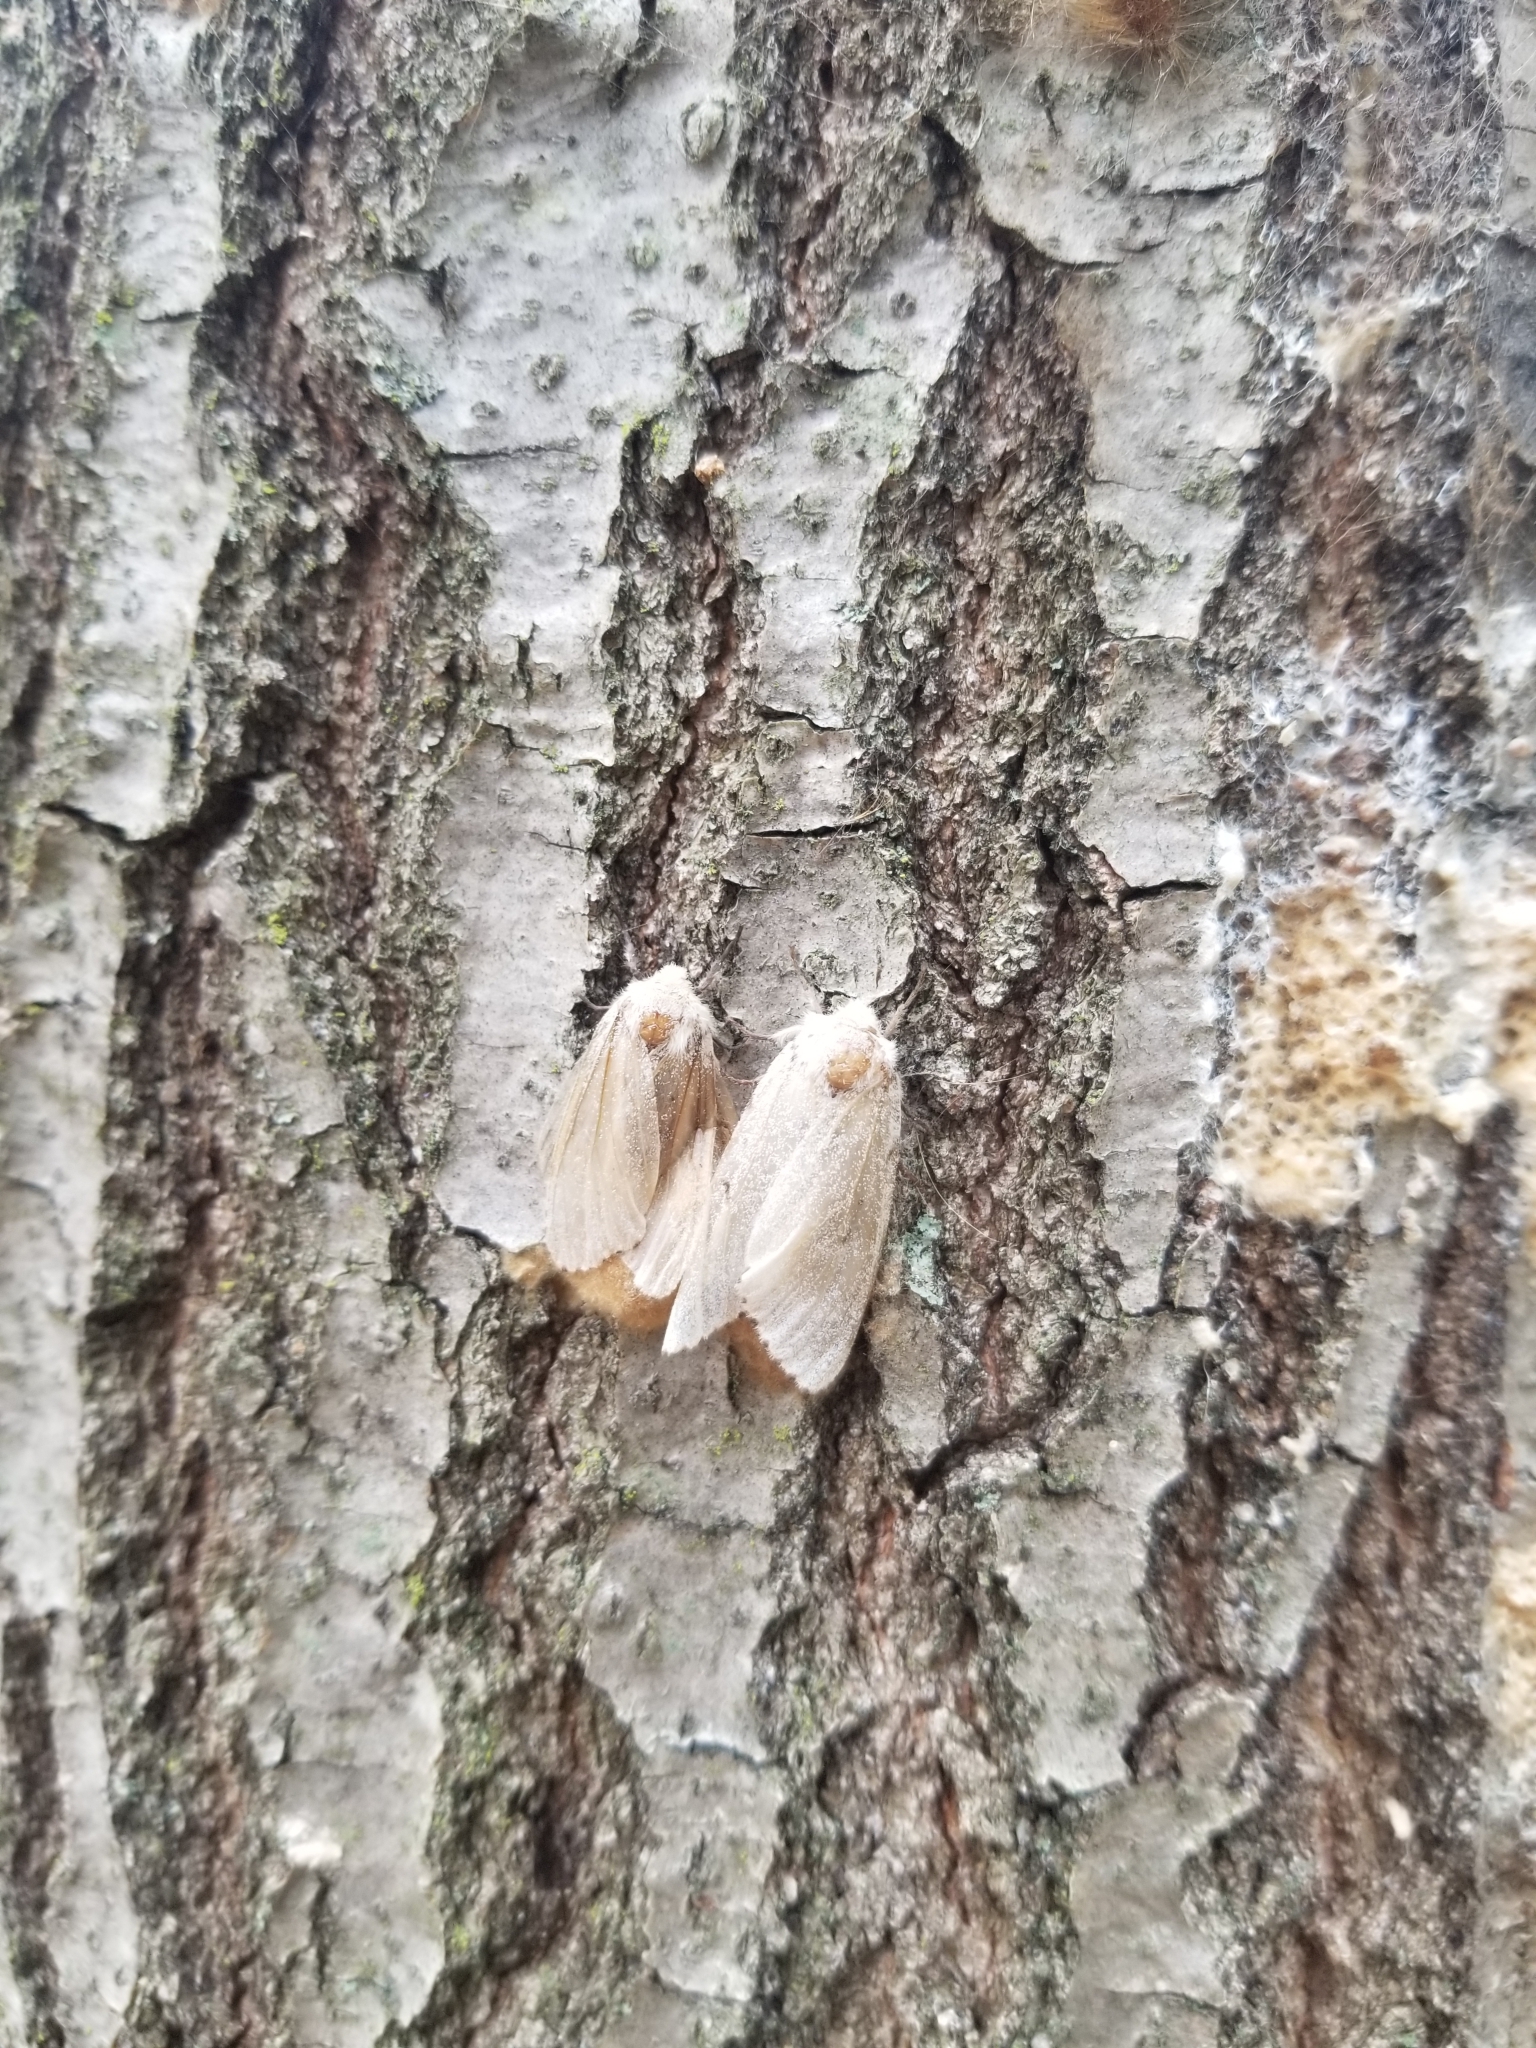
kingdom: Animalia
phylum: Arthropoda
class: Insecta
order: Lepidoptera
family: Erebidae
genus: Lymantria
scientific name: Lymantria dispar
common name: Gypsy moth
